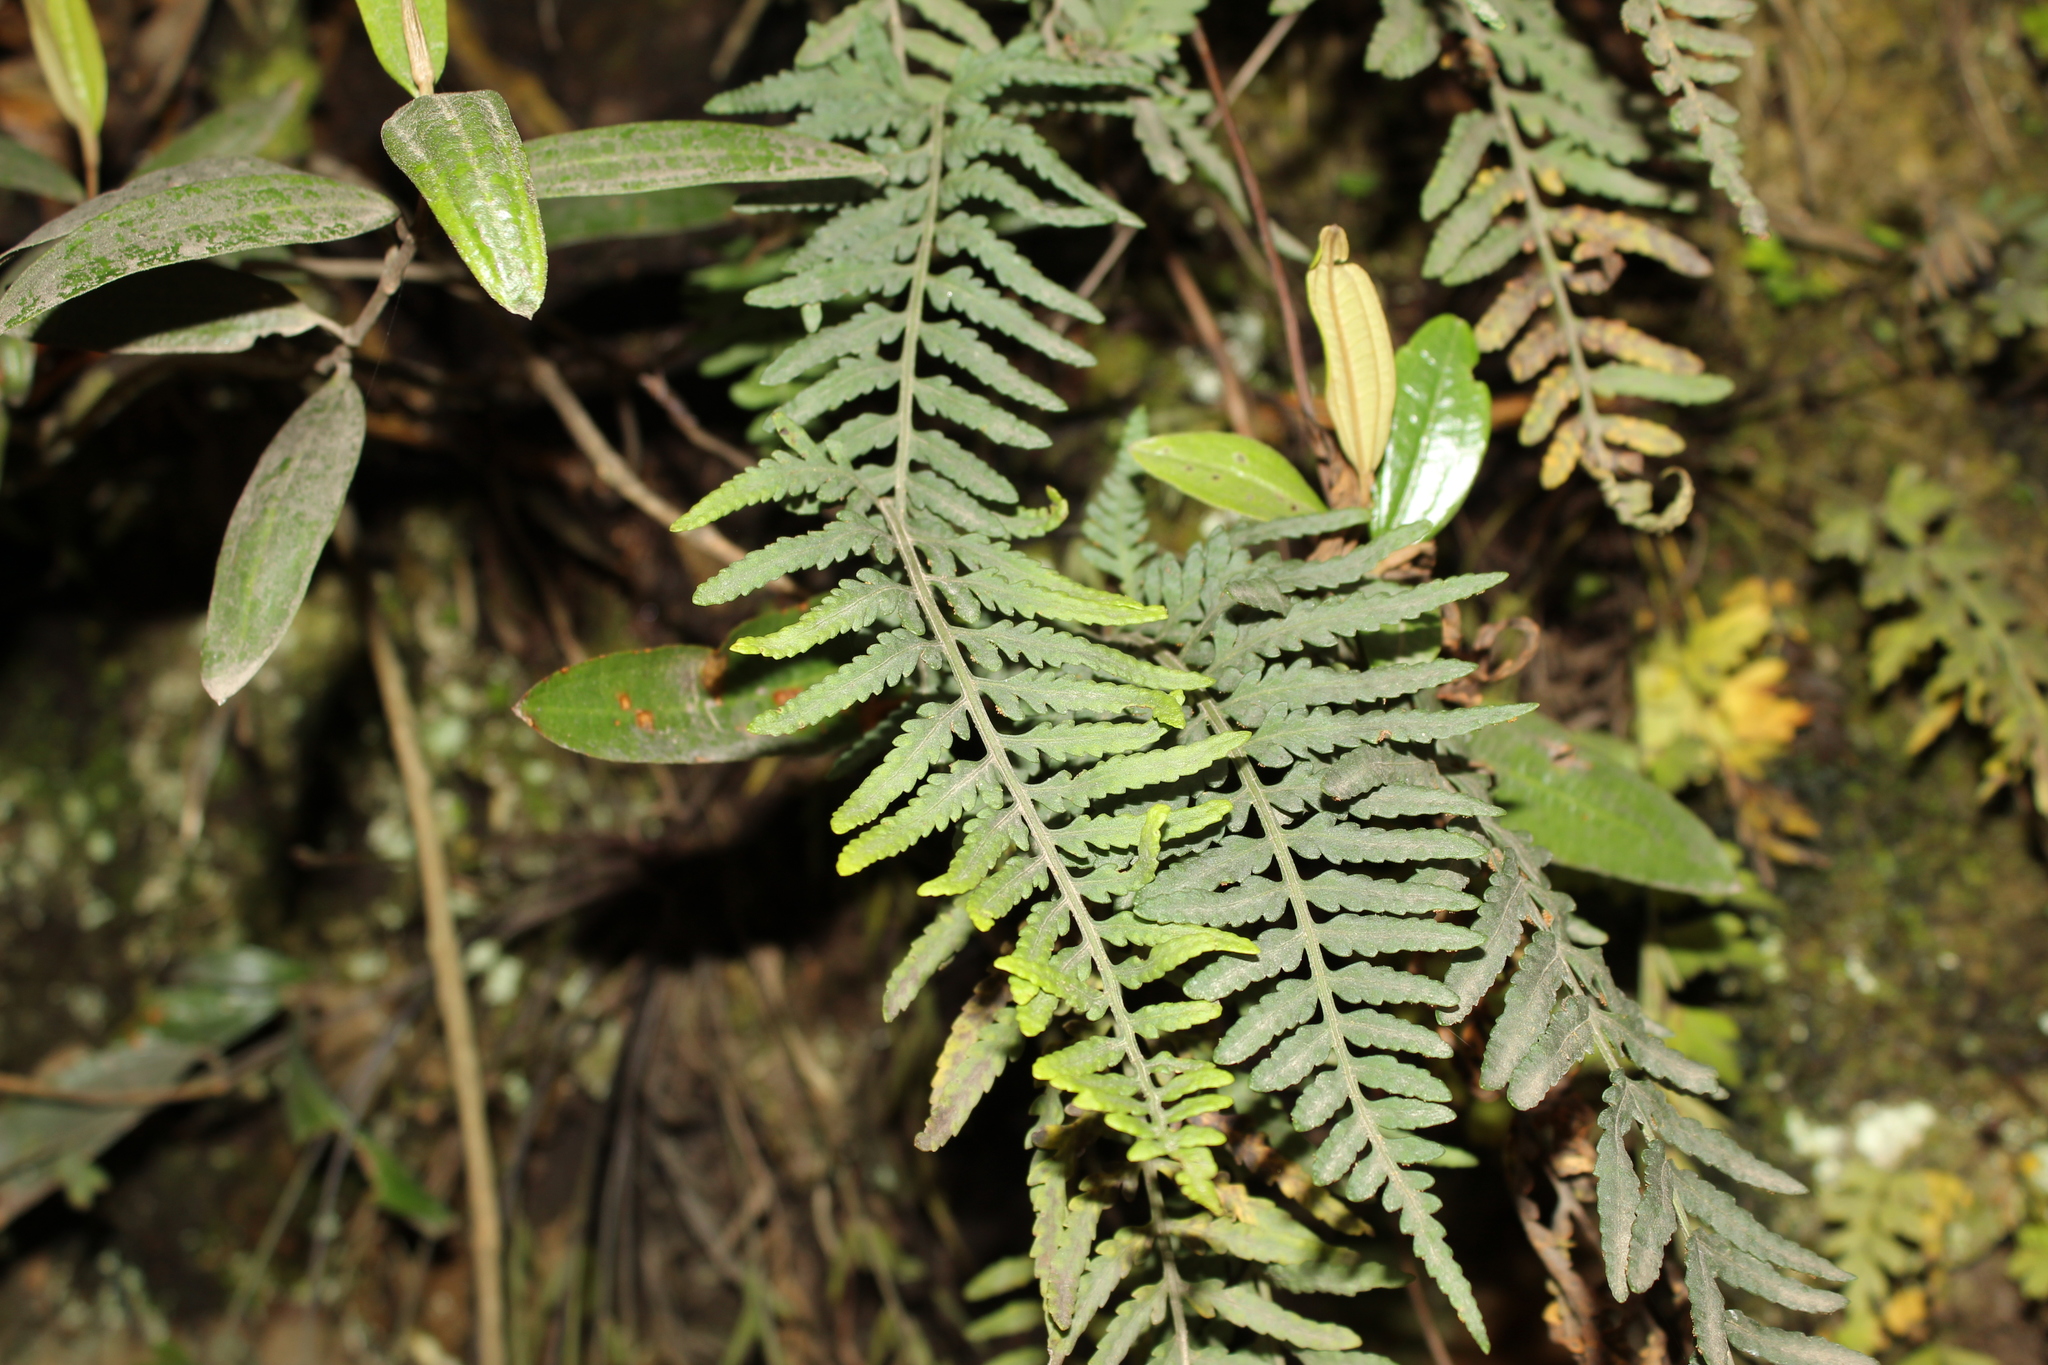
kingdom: Plantae
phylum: Tracheophyta
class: Polypodiopsida
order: Polypodiales
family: Polypodiaceae
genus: Pleopeltis
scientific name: Pleopeltis murora
